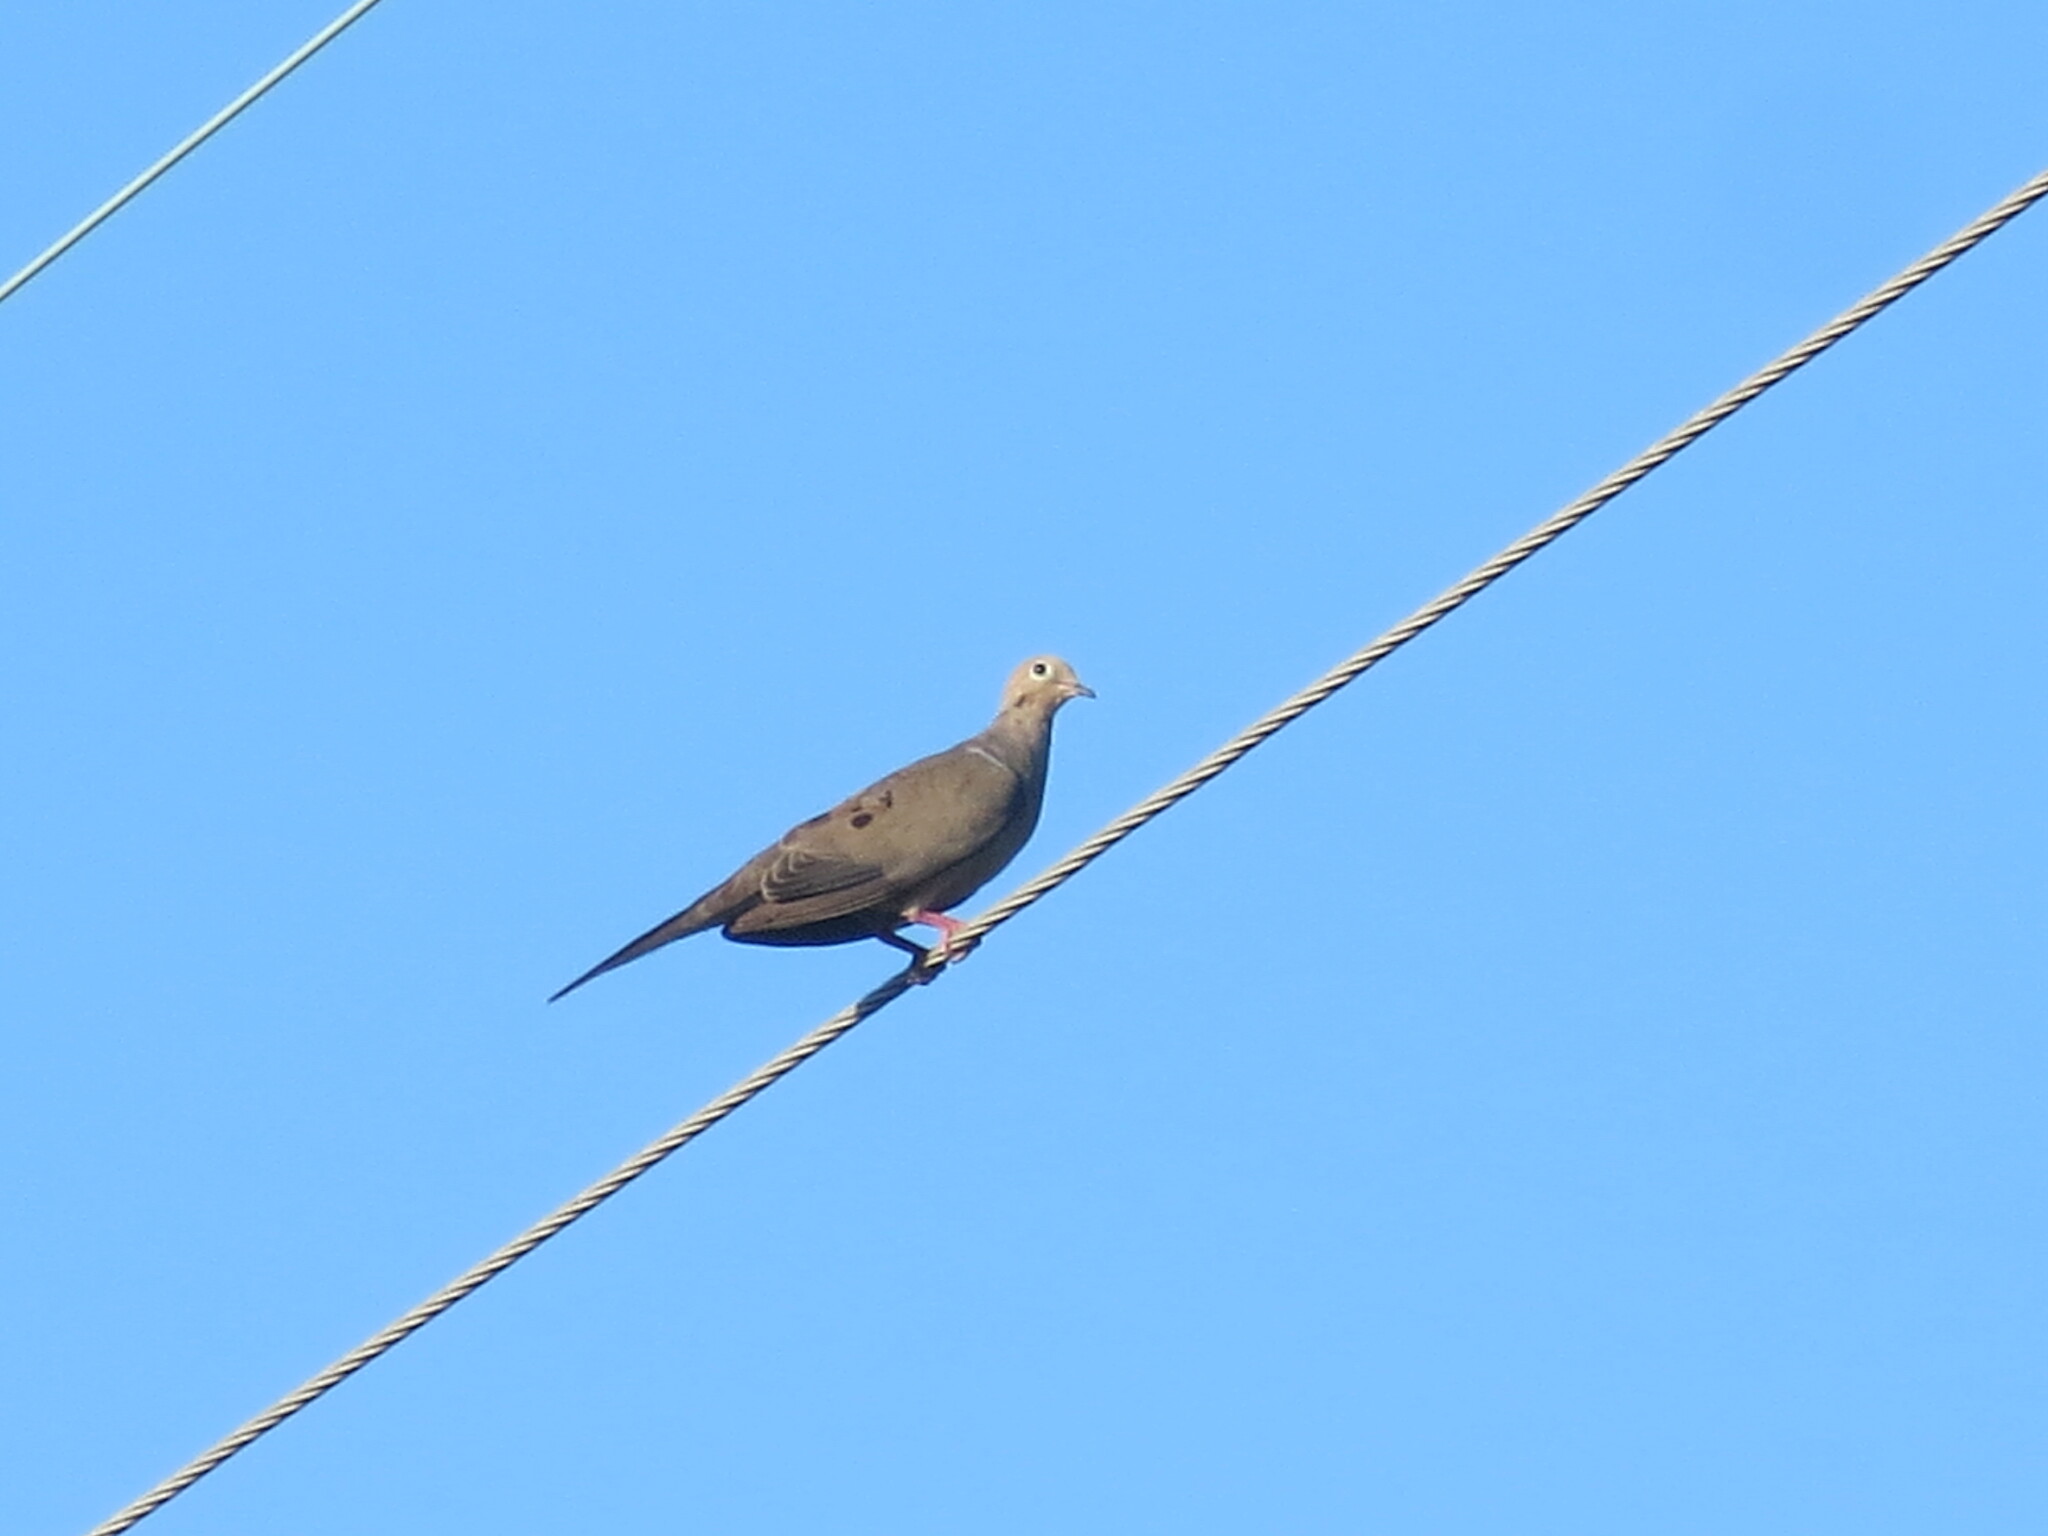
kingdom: Animalia
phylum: Chordata
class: Aves
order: Columbiformes
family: Columbidae
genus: Zenaida
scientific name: Zenaida macroura
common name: Mourning dove
